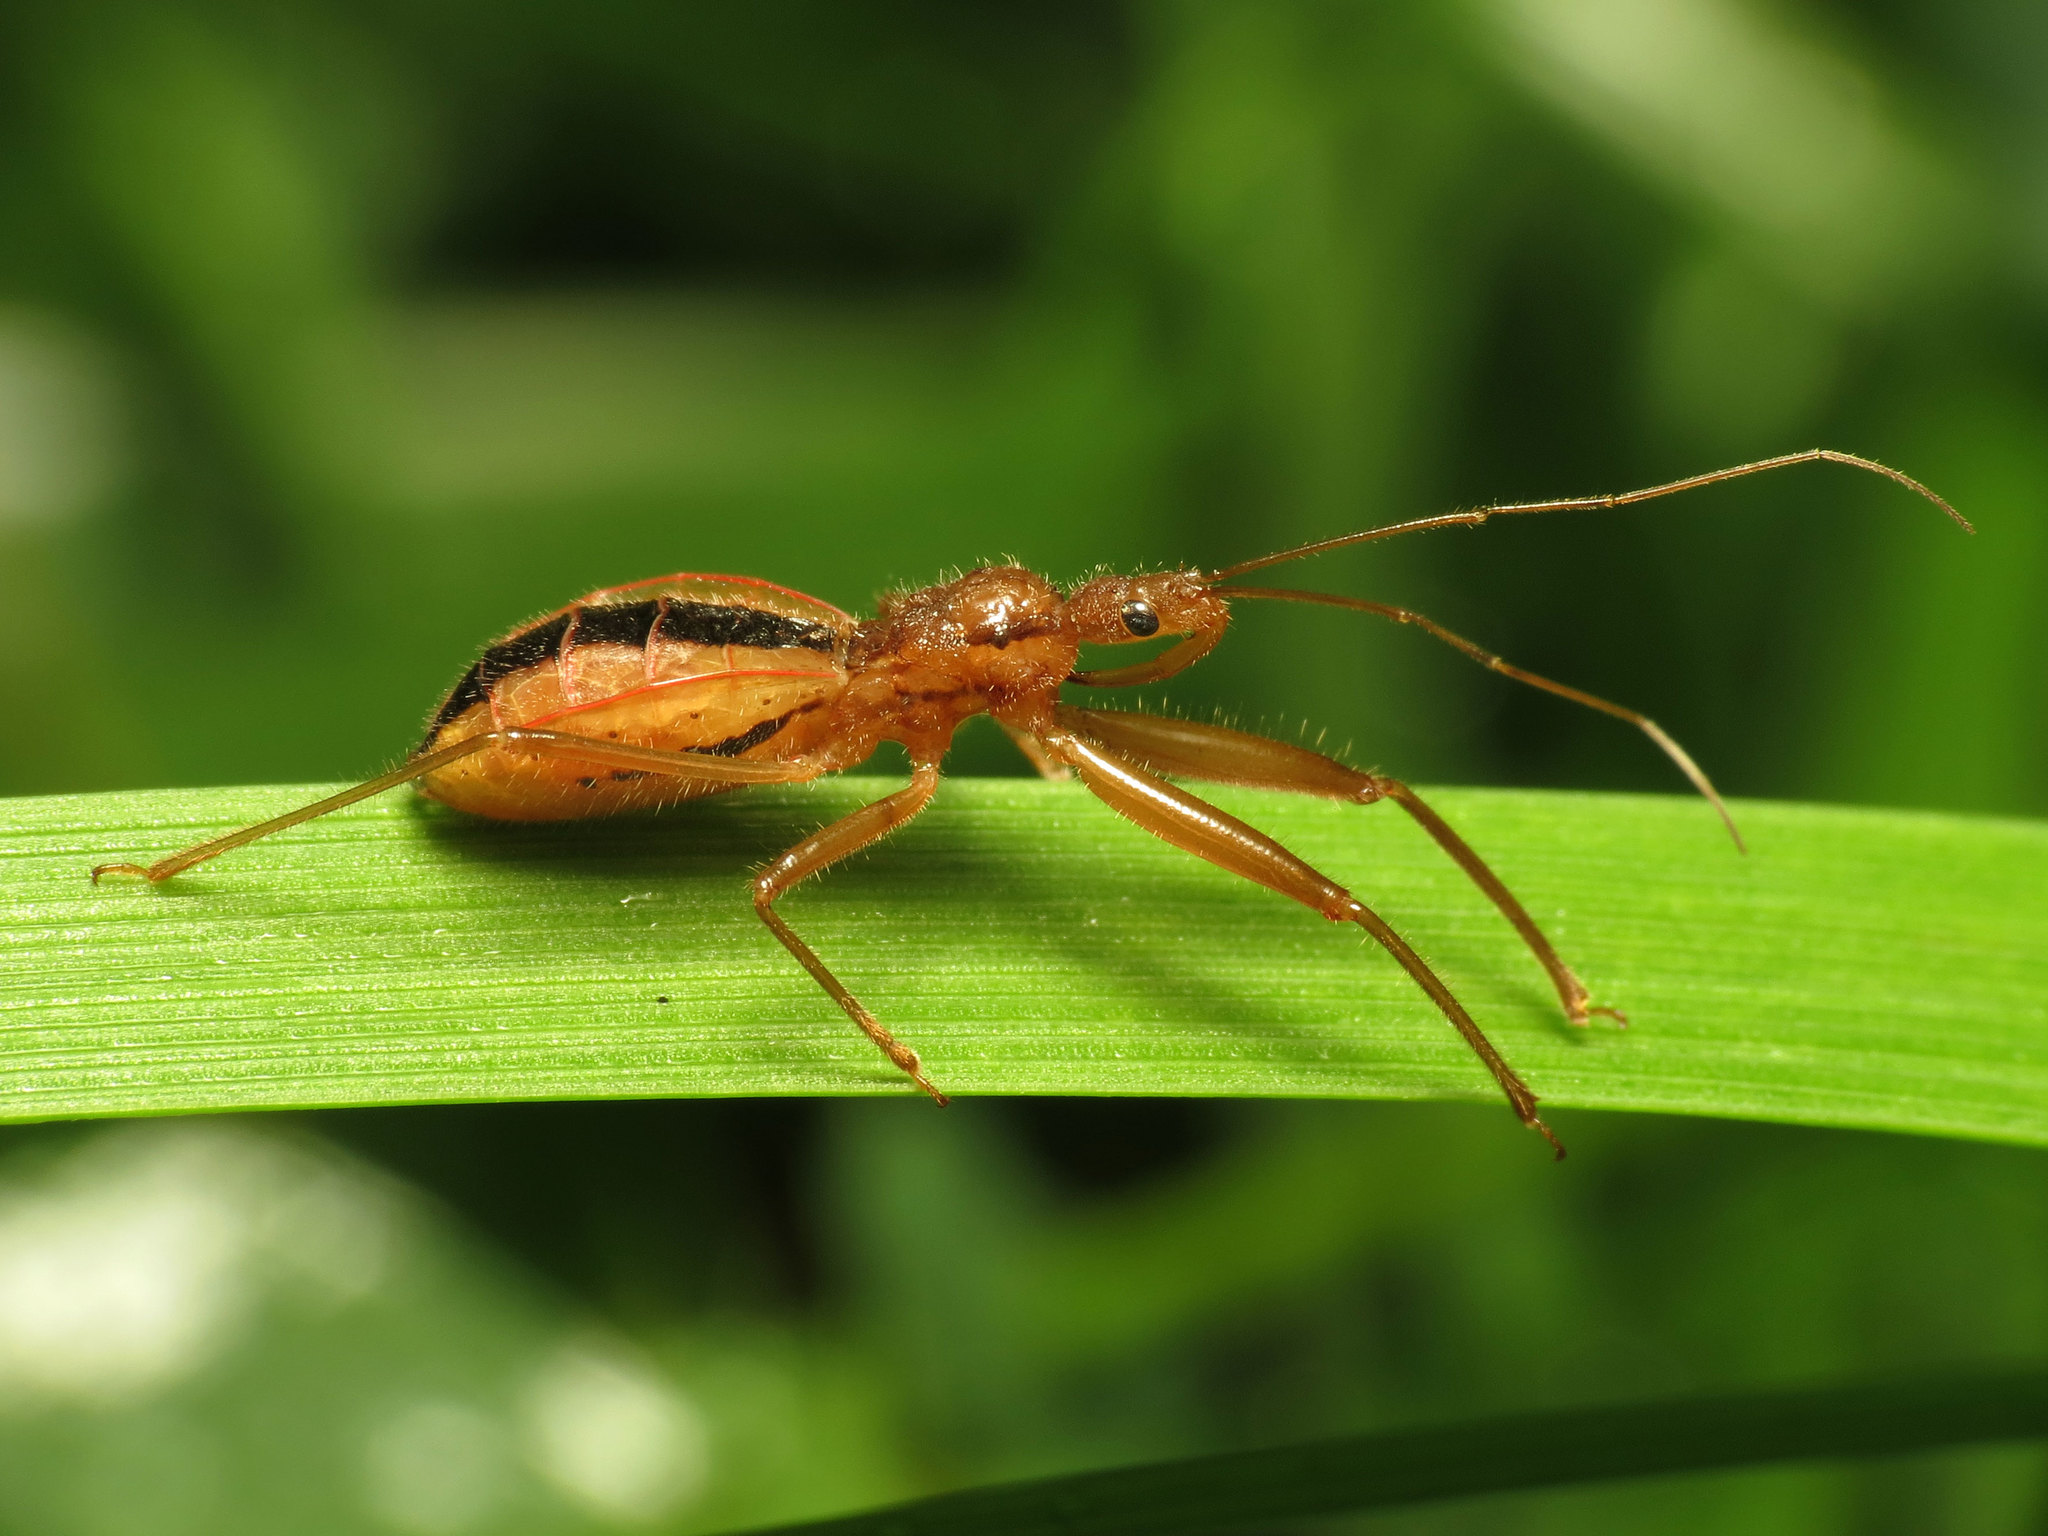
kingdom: Animalia
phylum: Arthropoda
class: Insecta
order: Hemiptera
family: Reduviidae
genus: Fitchia
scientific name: Fitchia aptera
